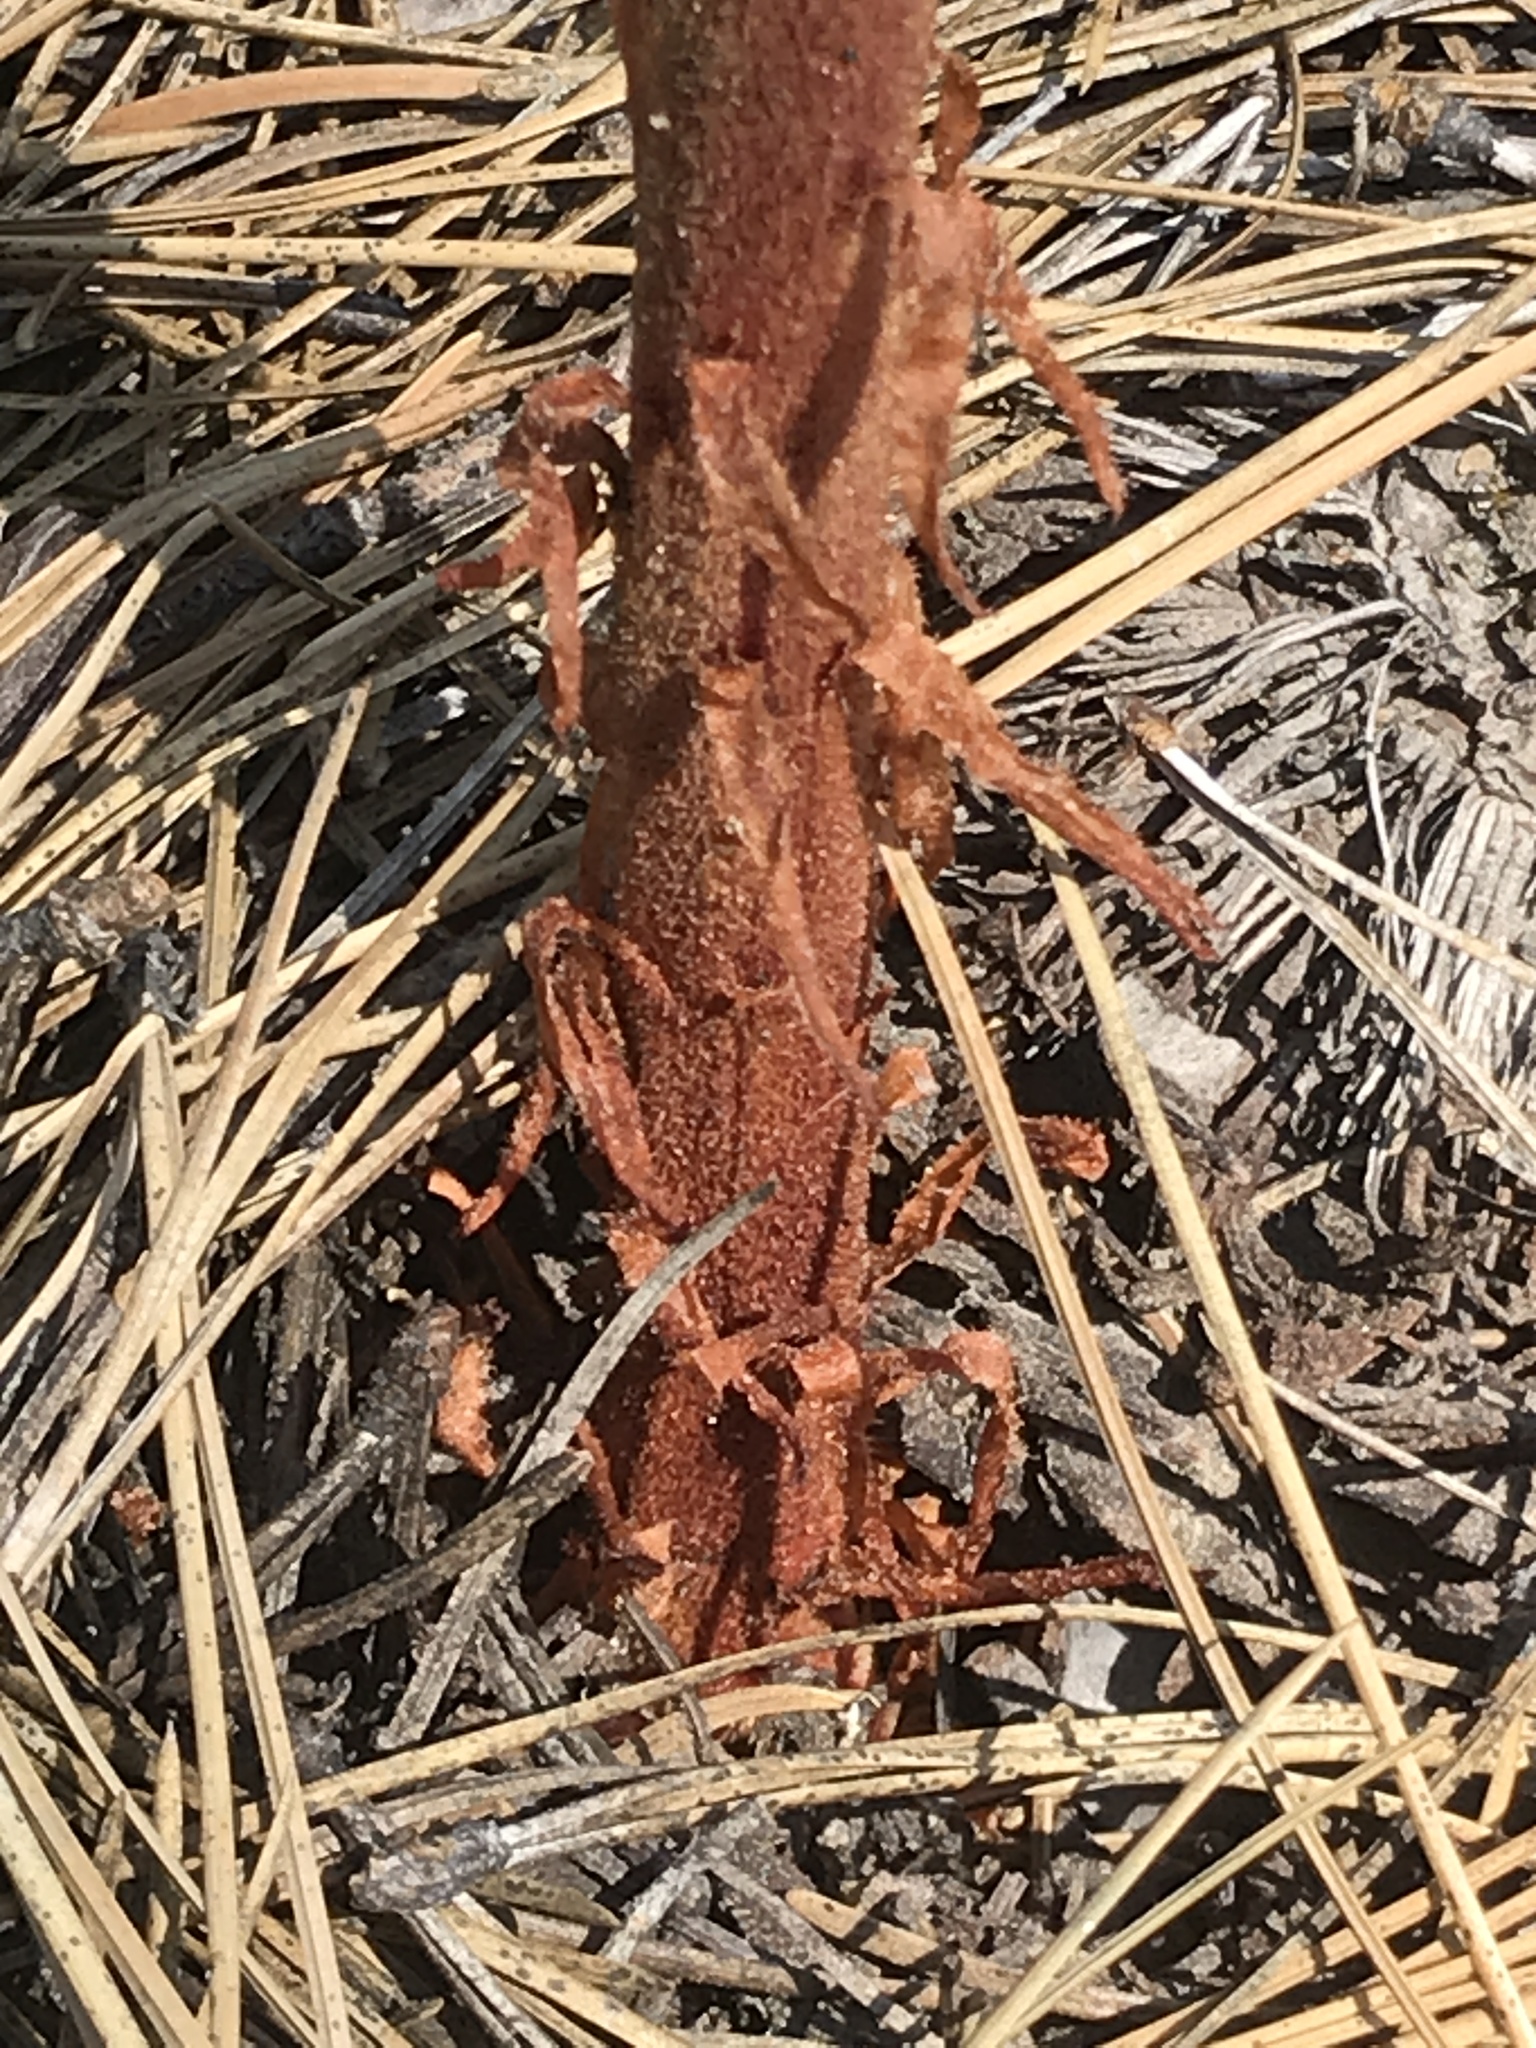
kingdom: Plantae
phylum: Tracheophyta
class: Magnoliopsida
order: Ericales
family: Ericaceae
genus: Pterospora
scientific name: Pterospora andromedea
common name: Giant bird's-nest
